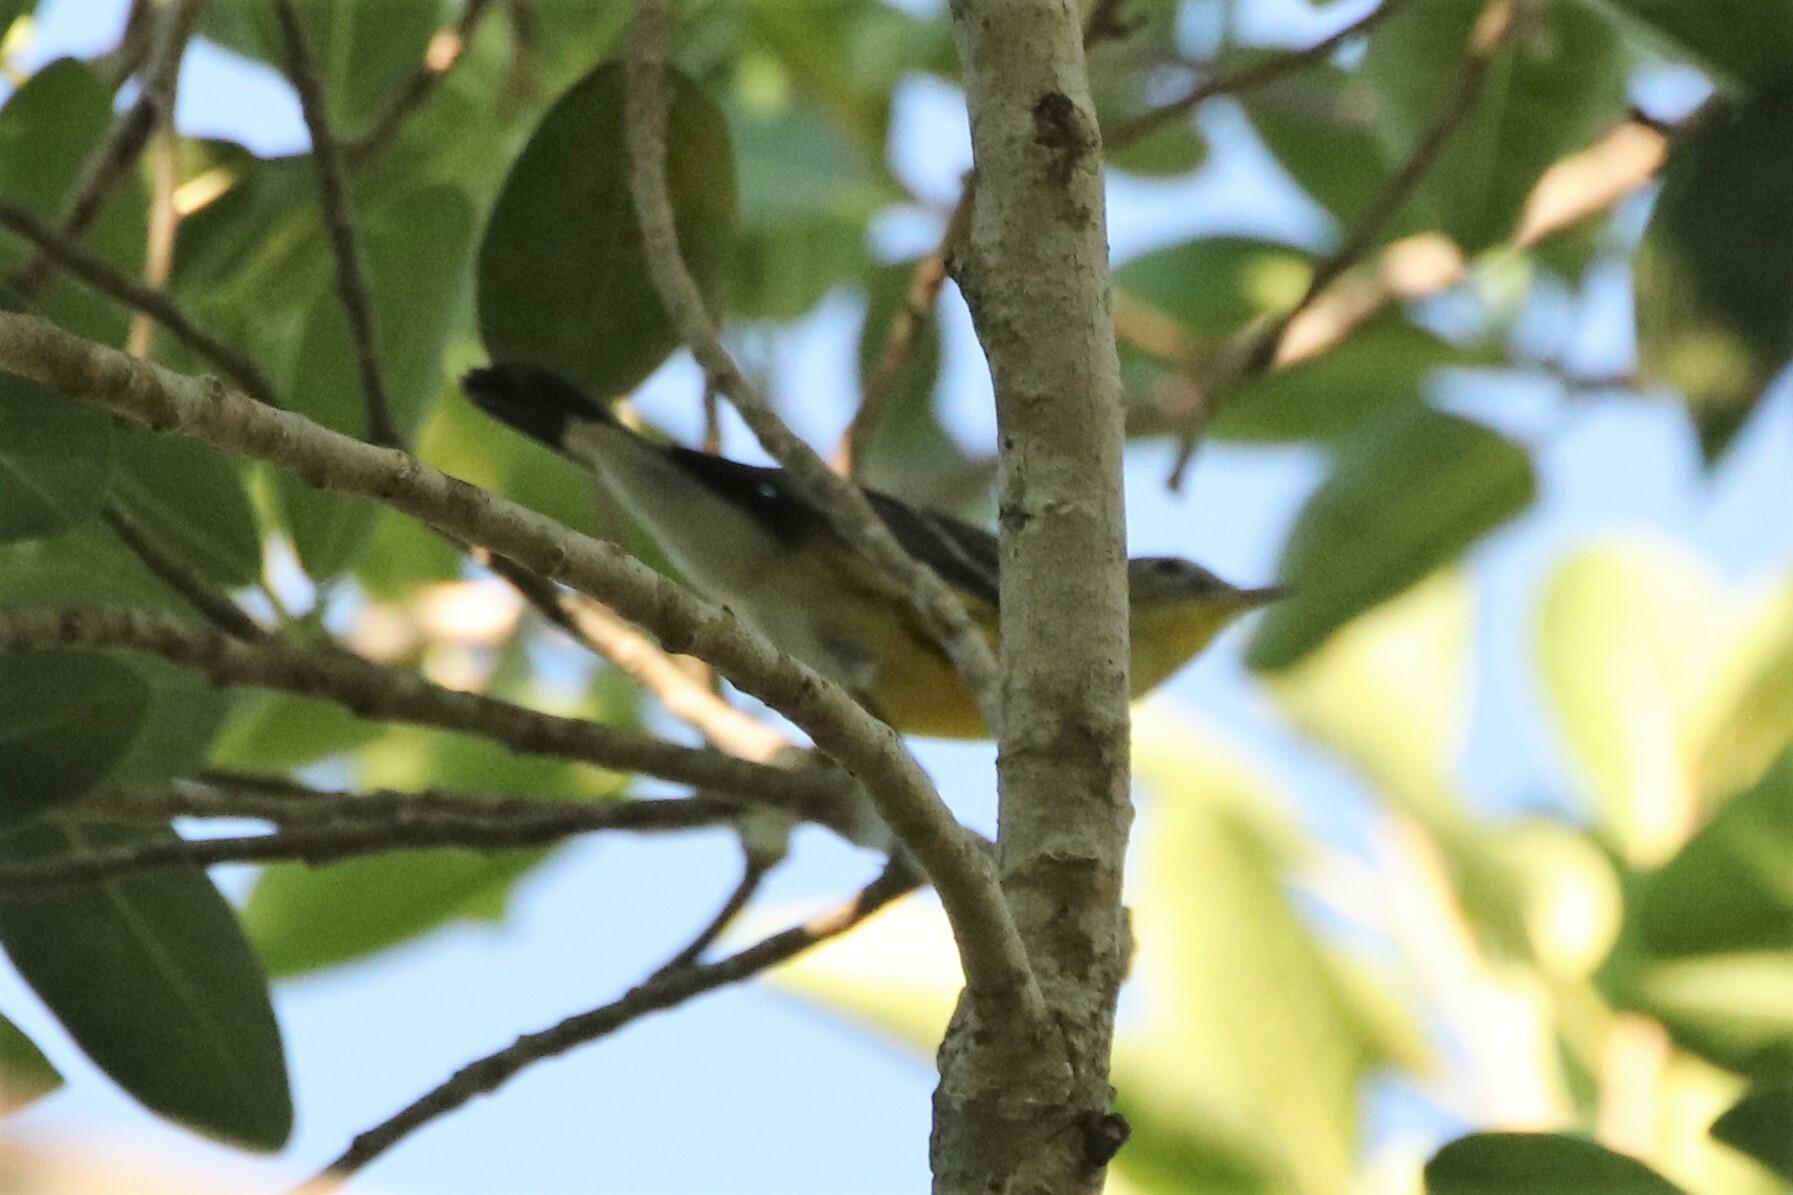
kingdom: Animalia
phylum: Chordata
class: Aves
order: Passeriformes
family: Parulidae
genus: Setophaga
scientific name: Setophaga magnolia
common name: Magnolia warbler
